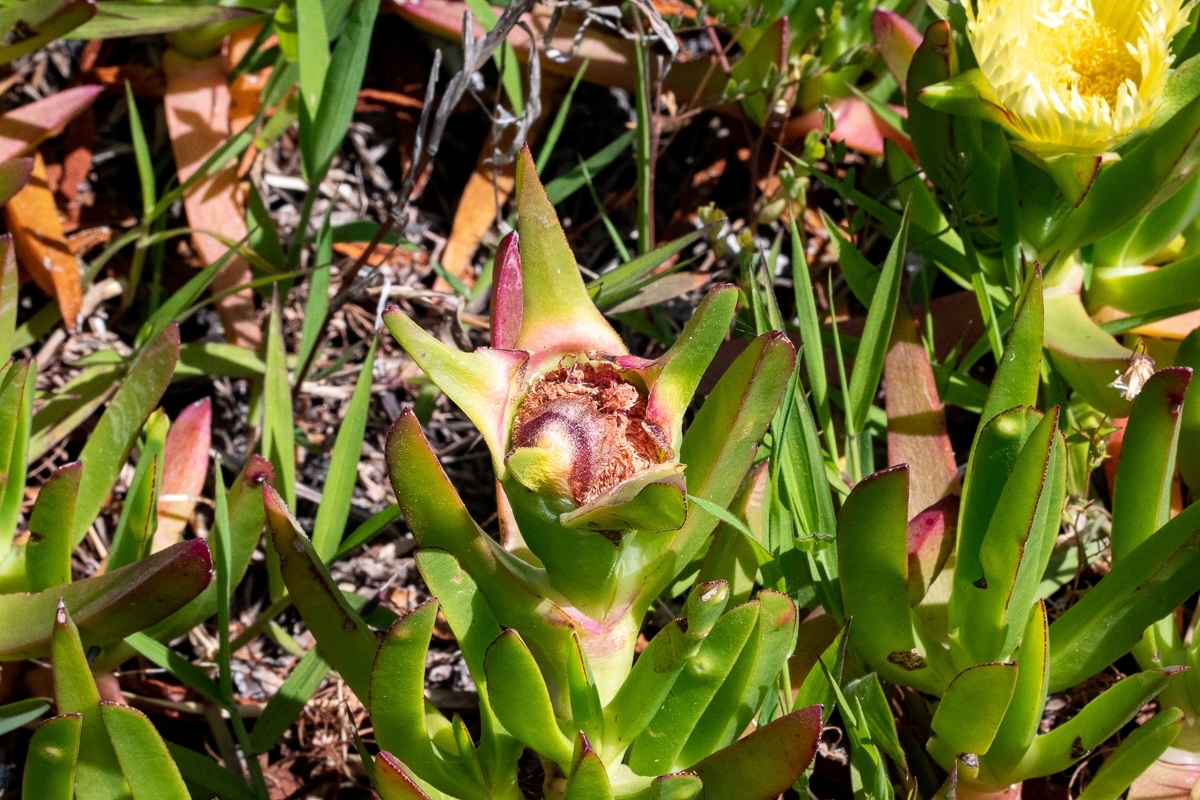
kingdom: Plantae
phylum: Tracheophyta
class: Magnoliopsida
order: Caryophyllales
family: Aizoaceae
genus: Carpobrotus
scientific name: Carpobrotus edulis
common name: Hottentot-fig
